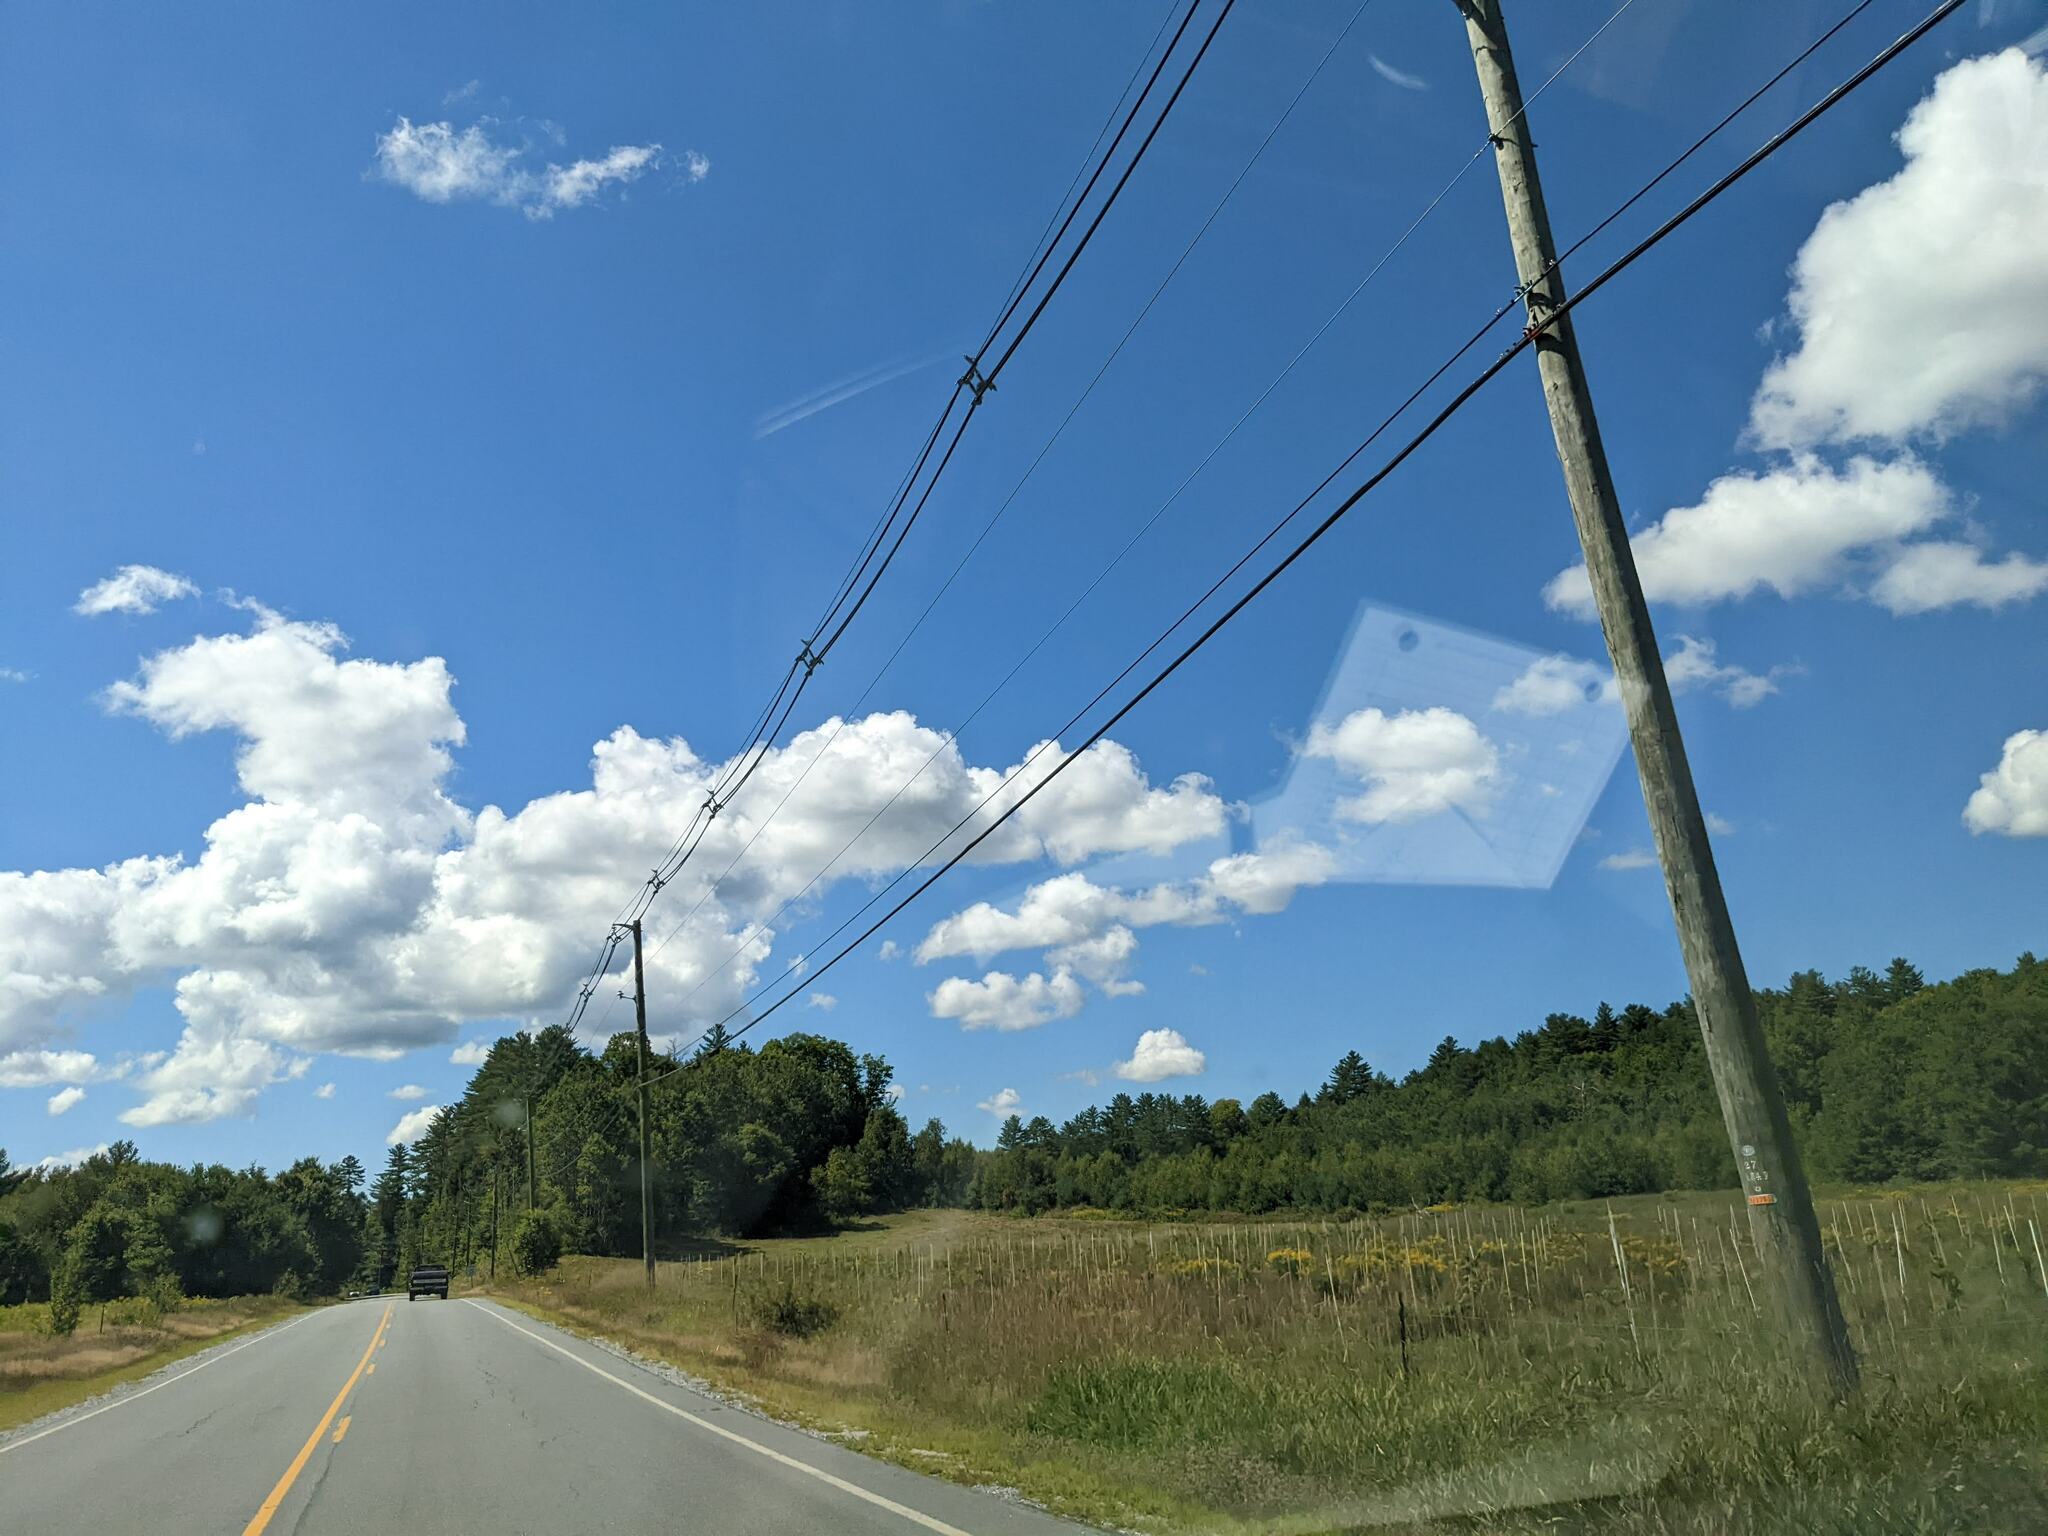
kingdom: Plantae
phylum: Tracheophyta
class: Pinopsida
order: Pinales
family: Pinaceae
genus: Pinus
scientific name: Pinus strobus
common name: Weymouth pine
